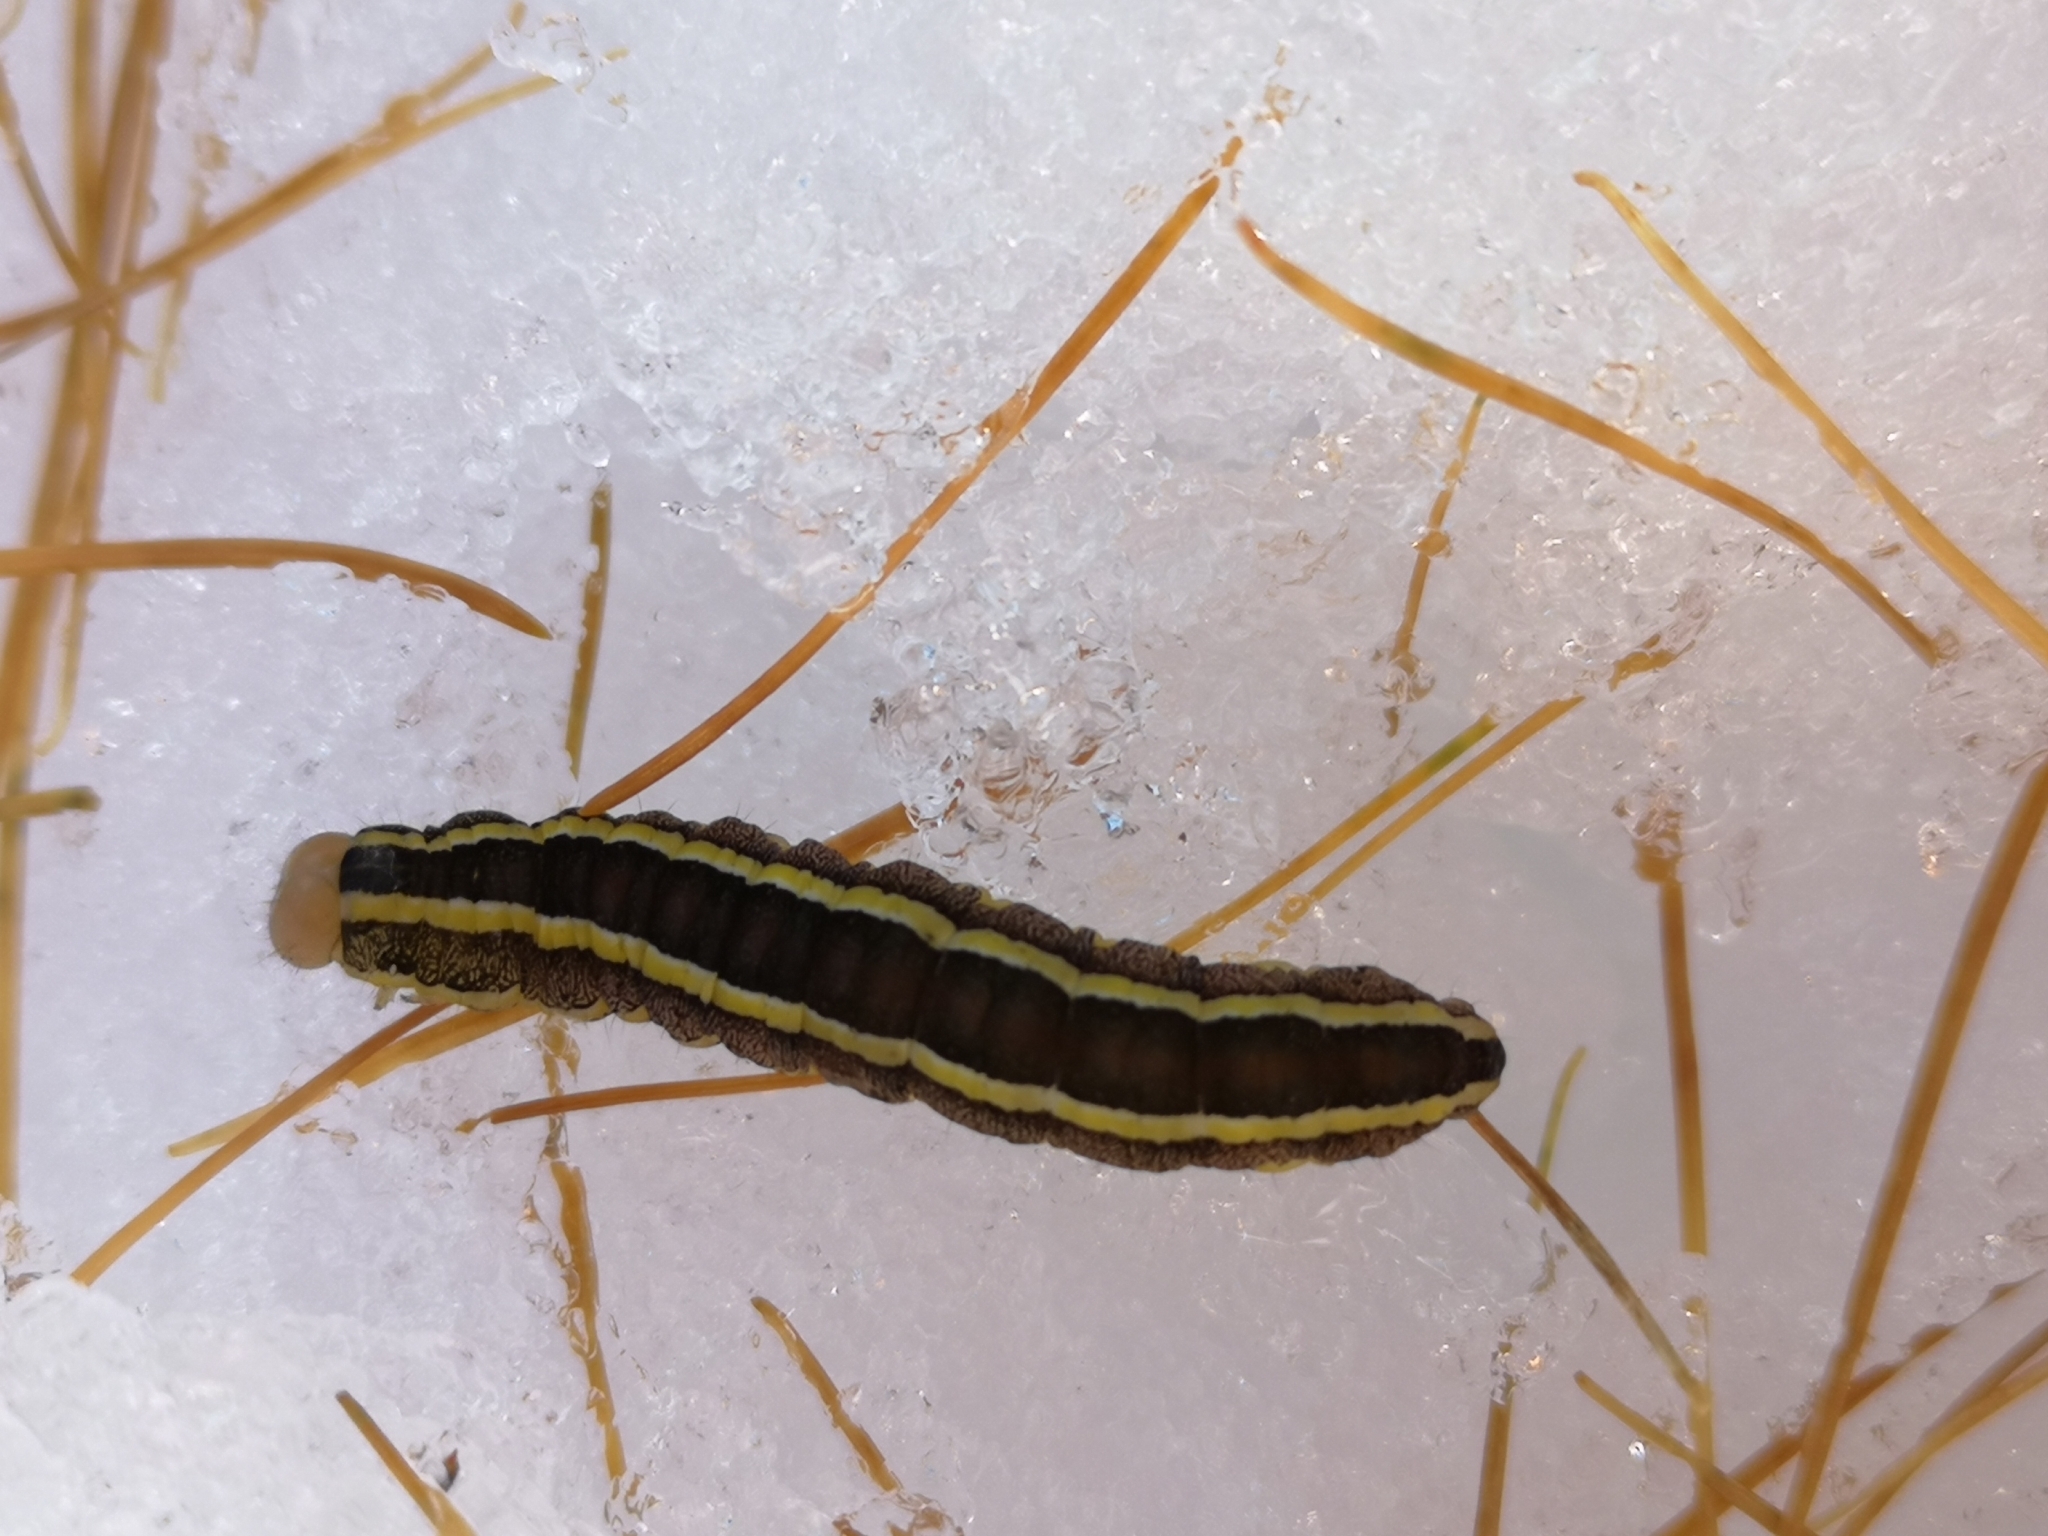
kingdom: Animalia
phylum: Arthropoda
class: Insecta
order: Lepidoptera
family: Noctuidae
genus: Ceramica
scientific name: Ceramica pisi
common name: Broom moth
